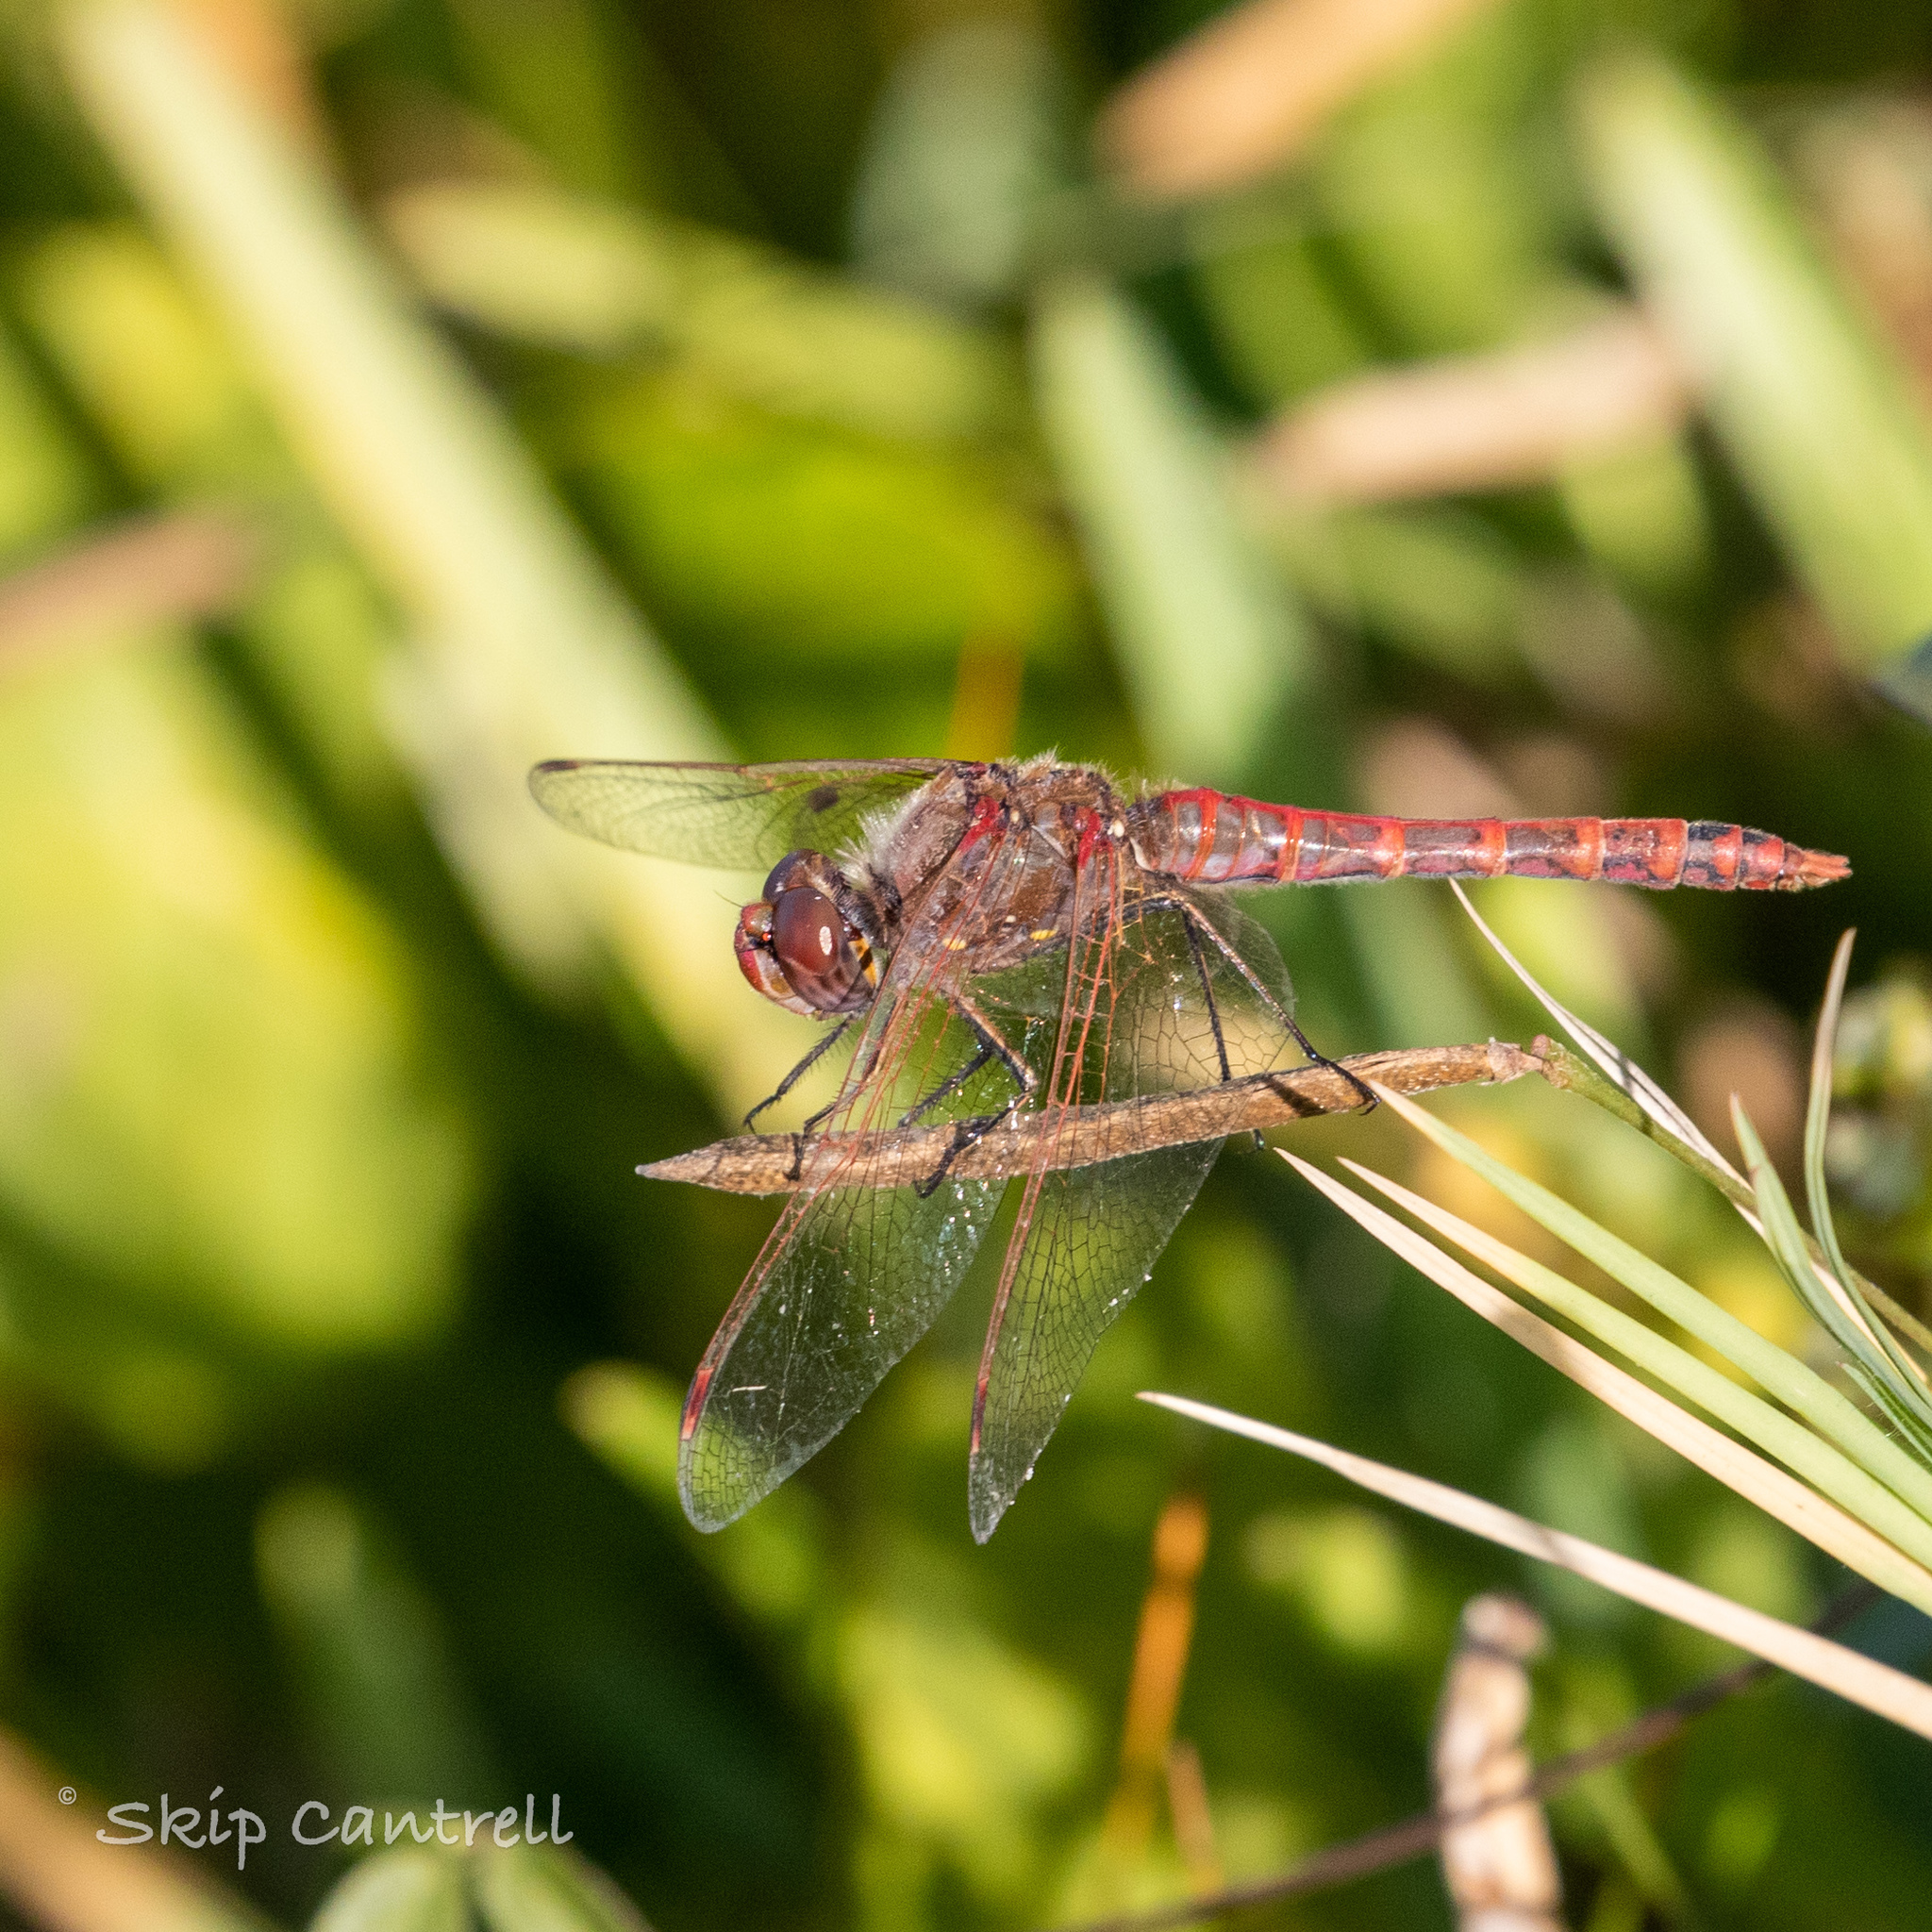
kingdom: Animalia
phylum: Arthropoda
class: Insecta
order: Odonata
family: Libellulidae
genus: Sympetrum
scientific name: Sympetrum corruptum
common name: Variegated meadowhawk
